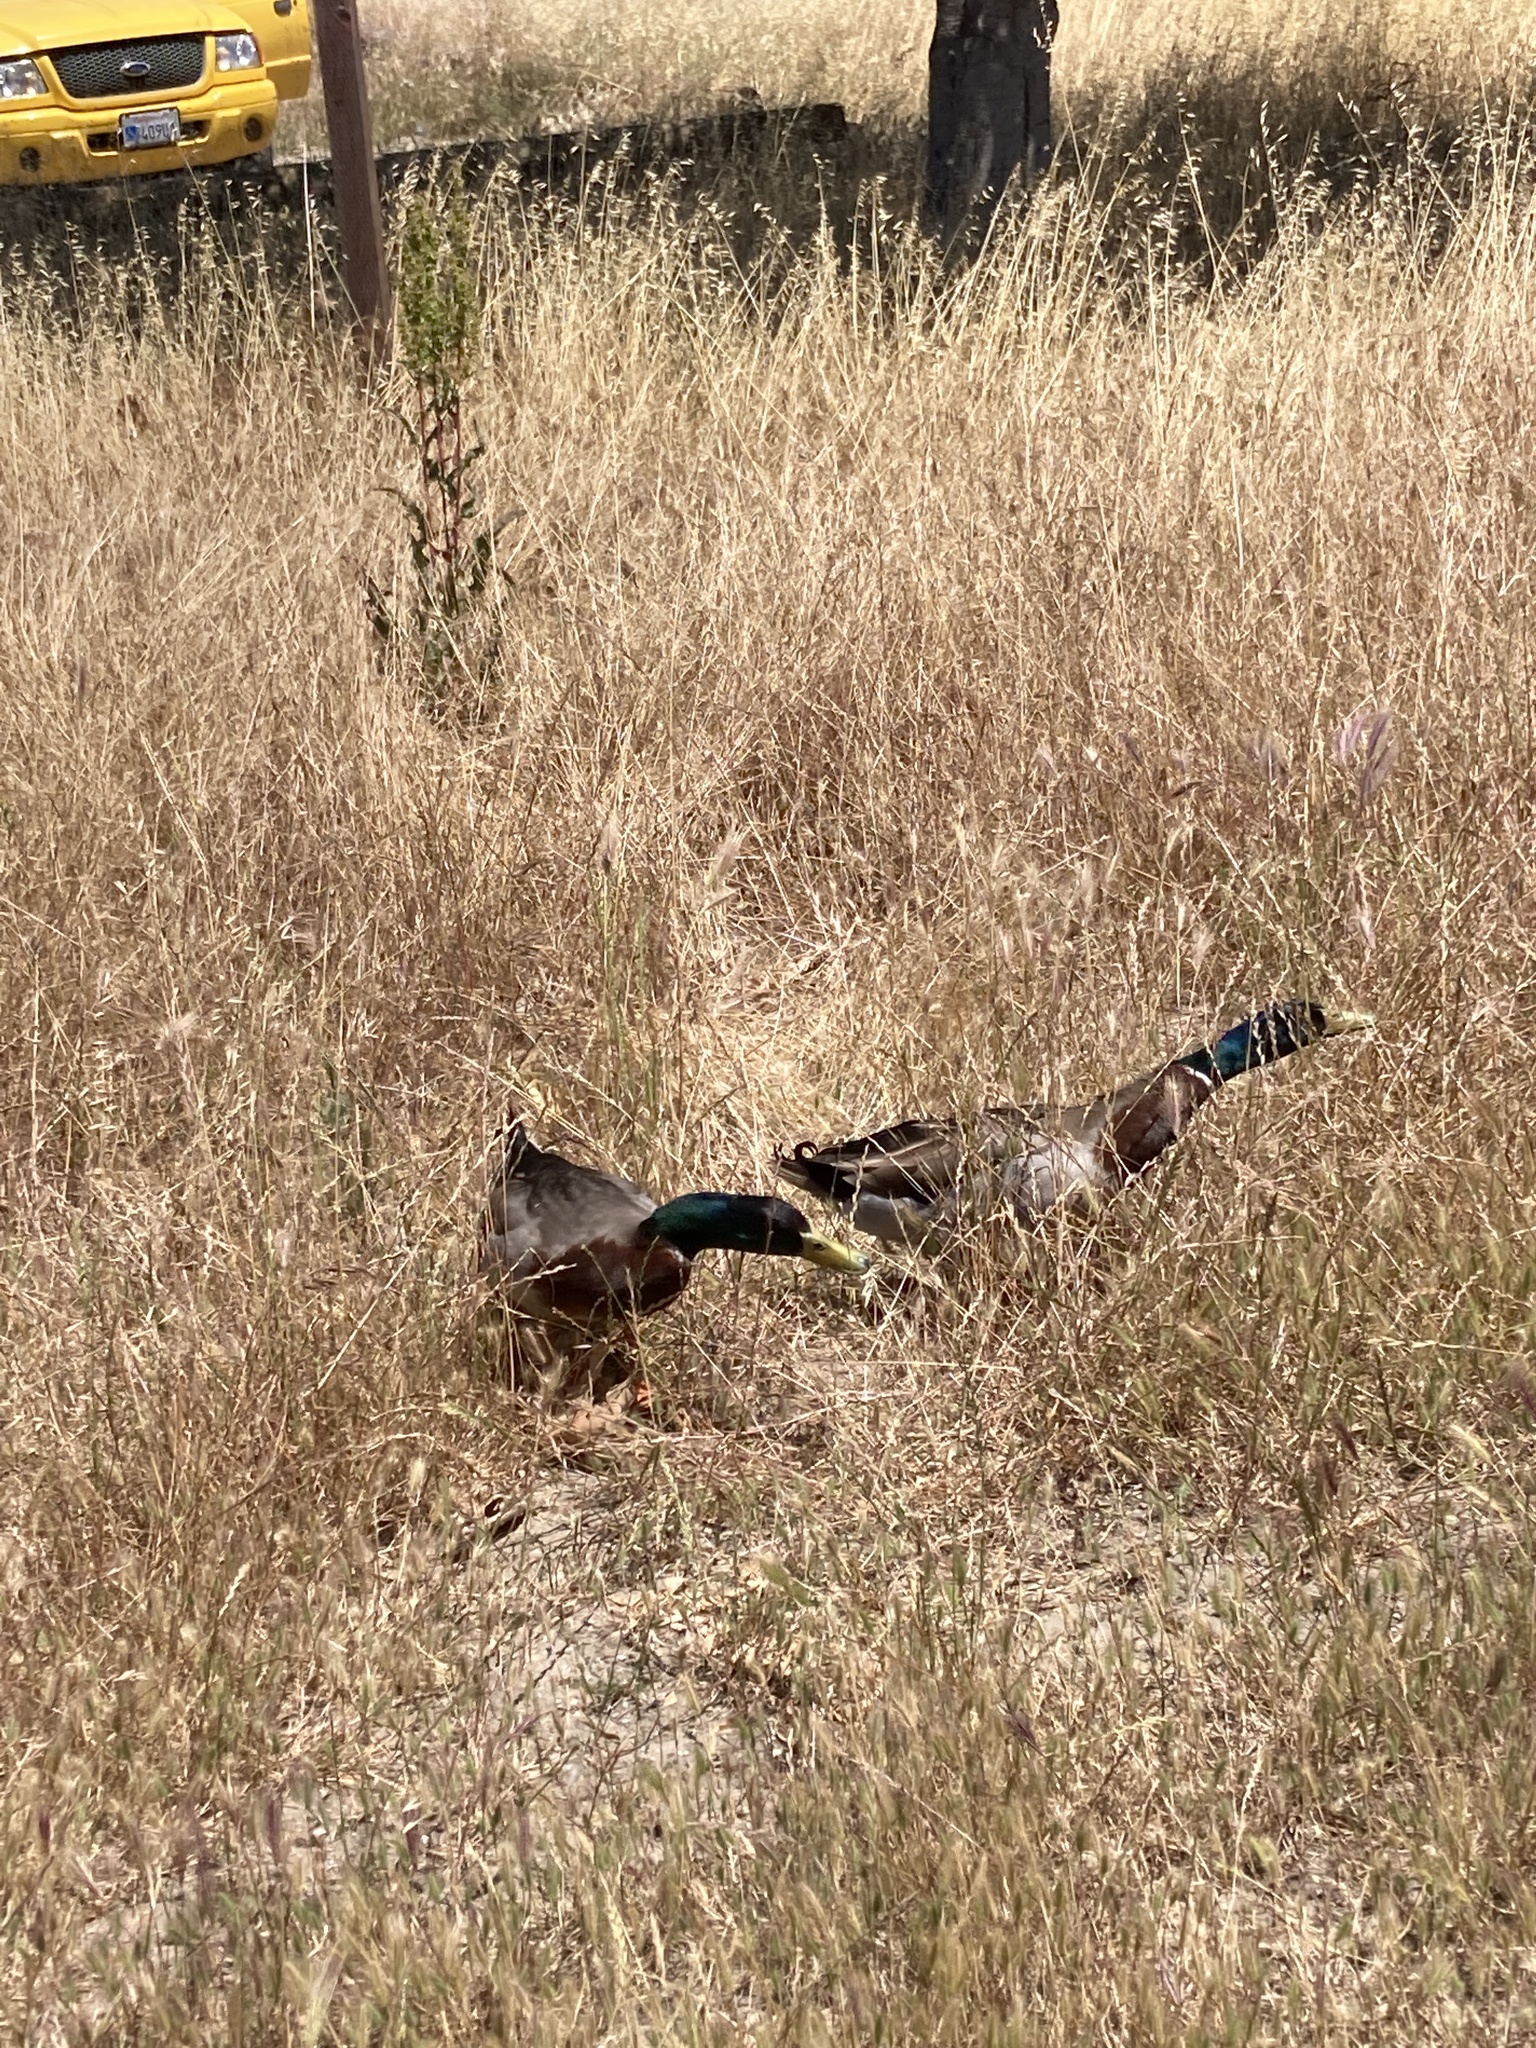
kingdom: Animalia
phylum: Chordata
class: Aves
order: Anseriformes
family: Anatidae
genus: Anas
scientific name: Anas platyrhynchos
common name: Mallard
